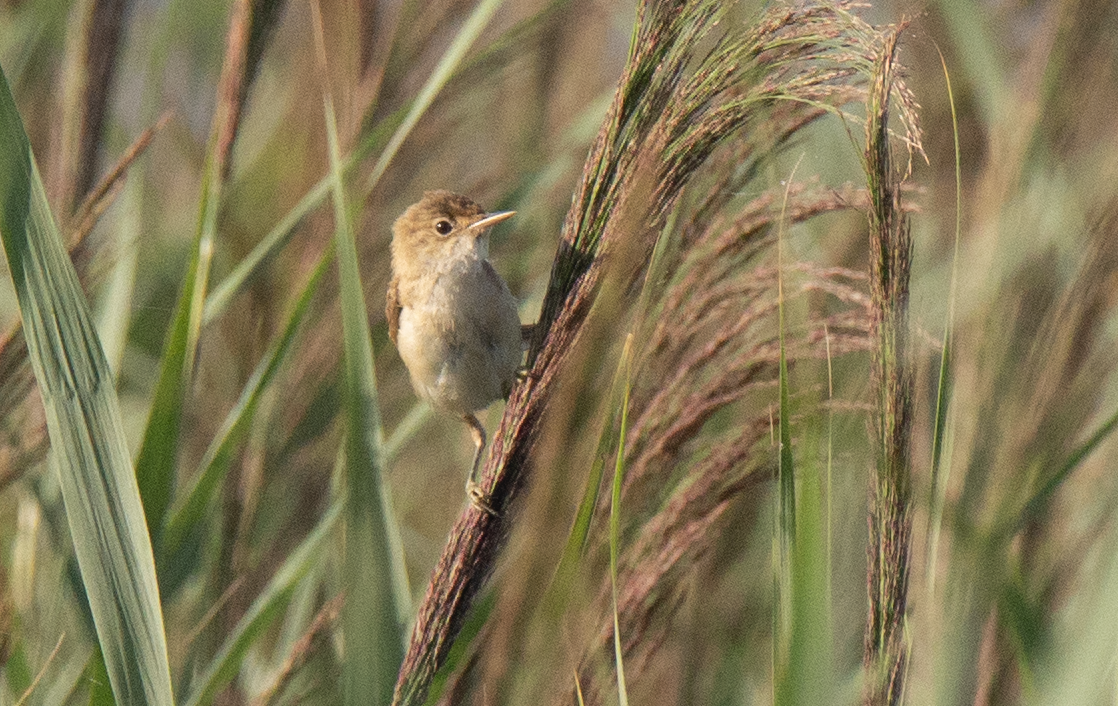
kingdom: Animalia
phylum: Chordata
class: Aves
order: Passeriformes
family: Acrocephalidae
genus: Acrocephalus
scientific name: Acrocephalus scirpaceus
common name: Eurasian reed warbler
